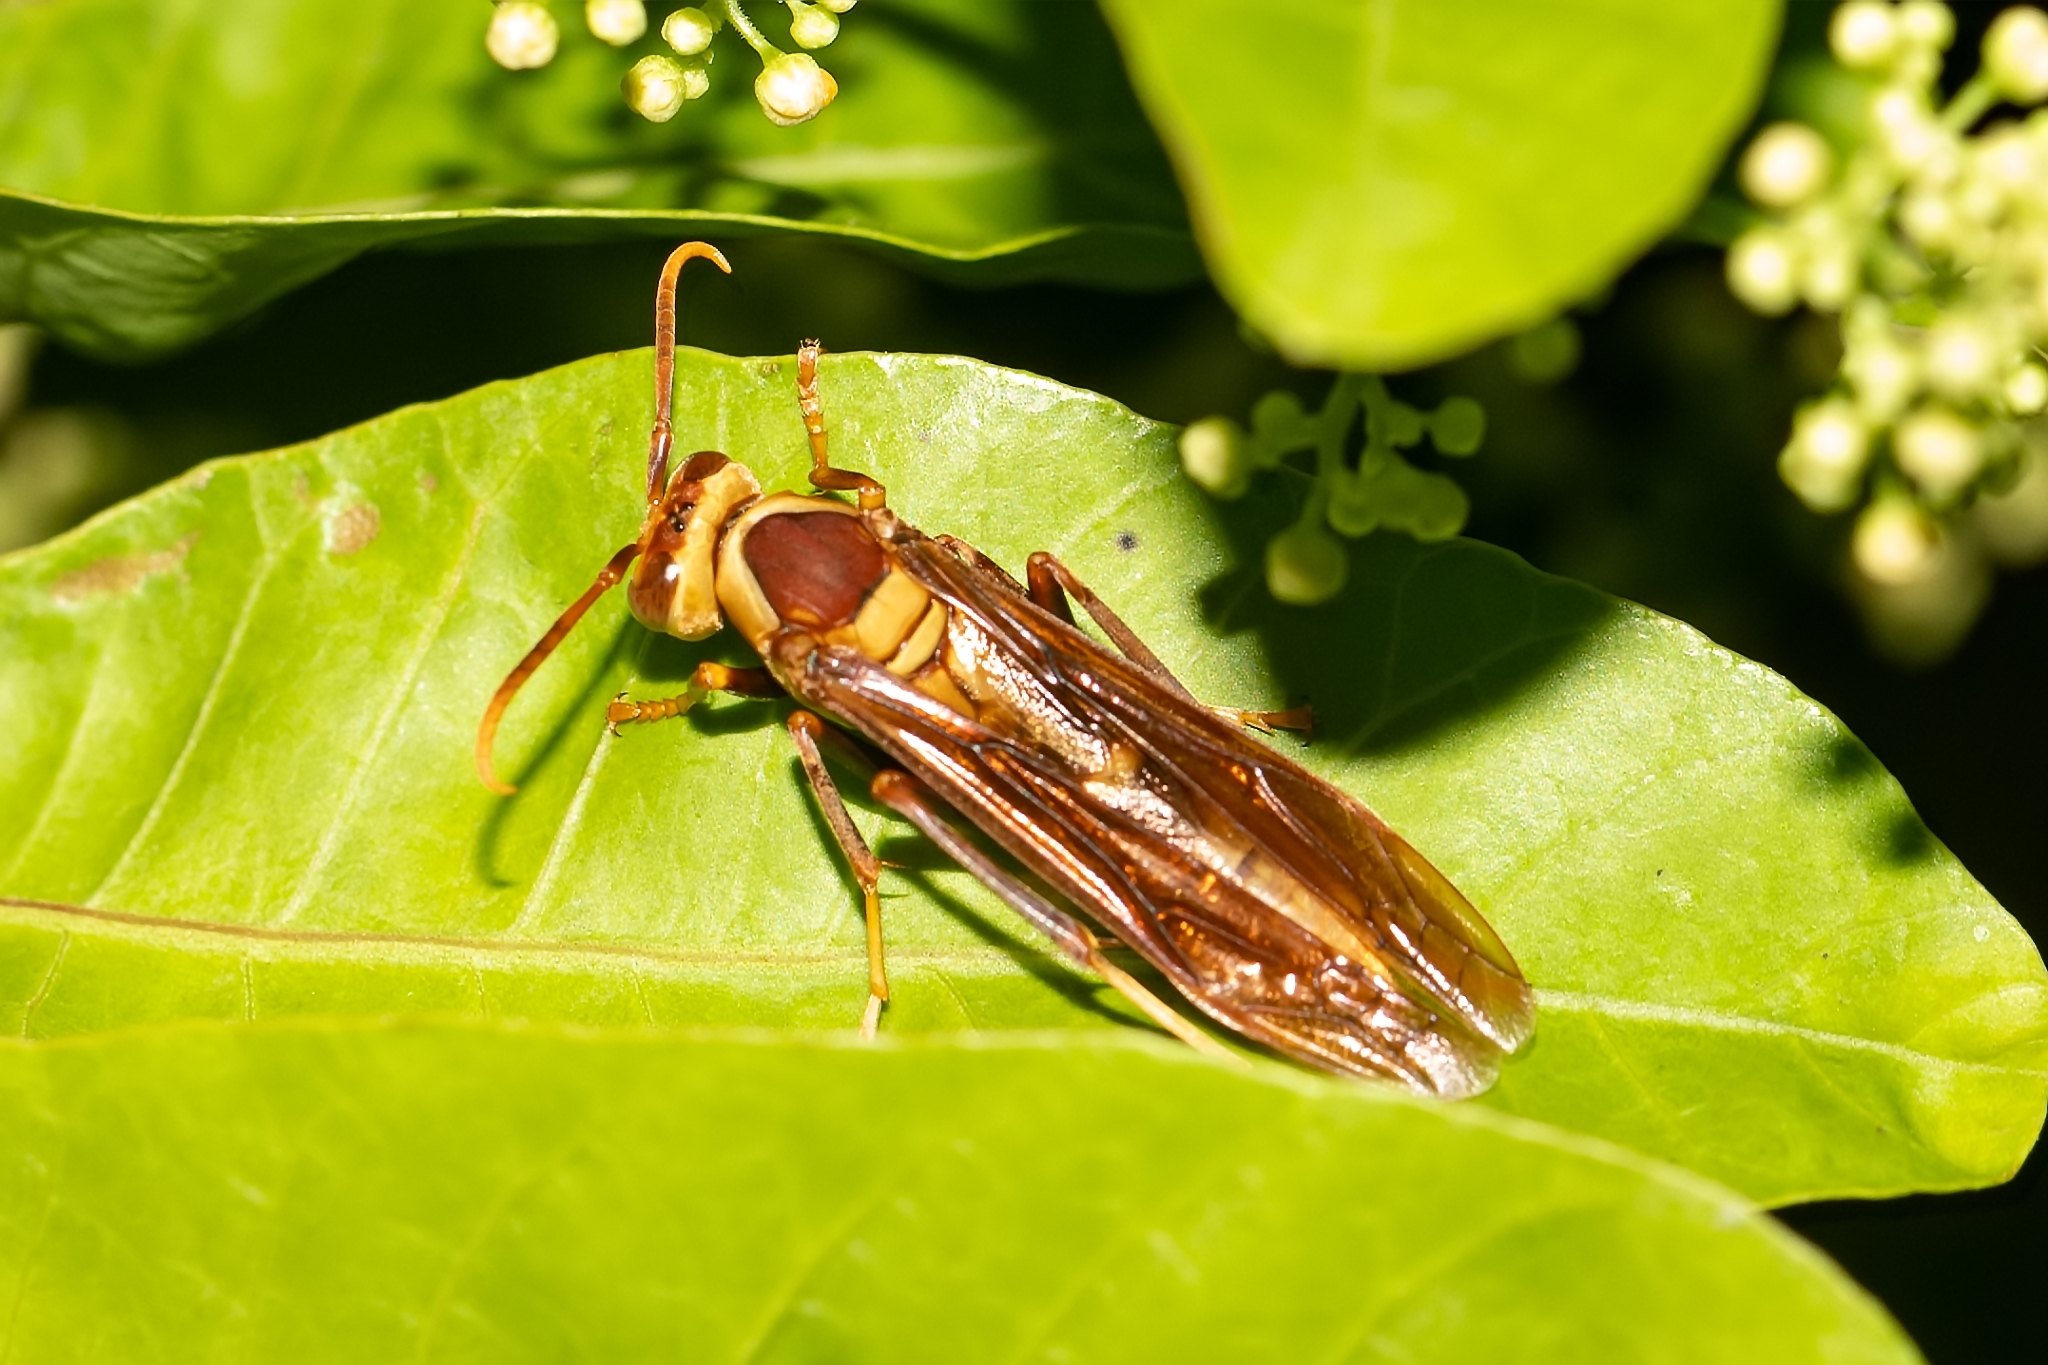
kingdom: Animalia
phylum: Arthropoda
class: Insecta
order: Hymenoptera
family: Eumenidae
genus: Polistes
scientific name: Polistes major
